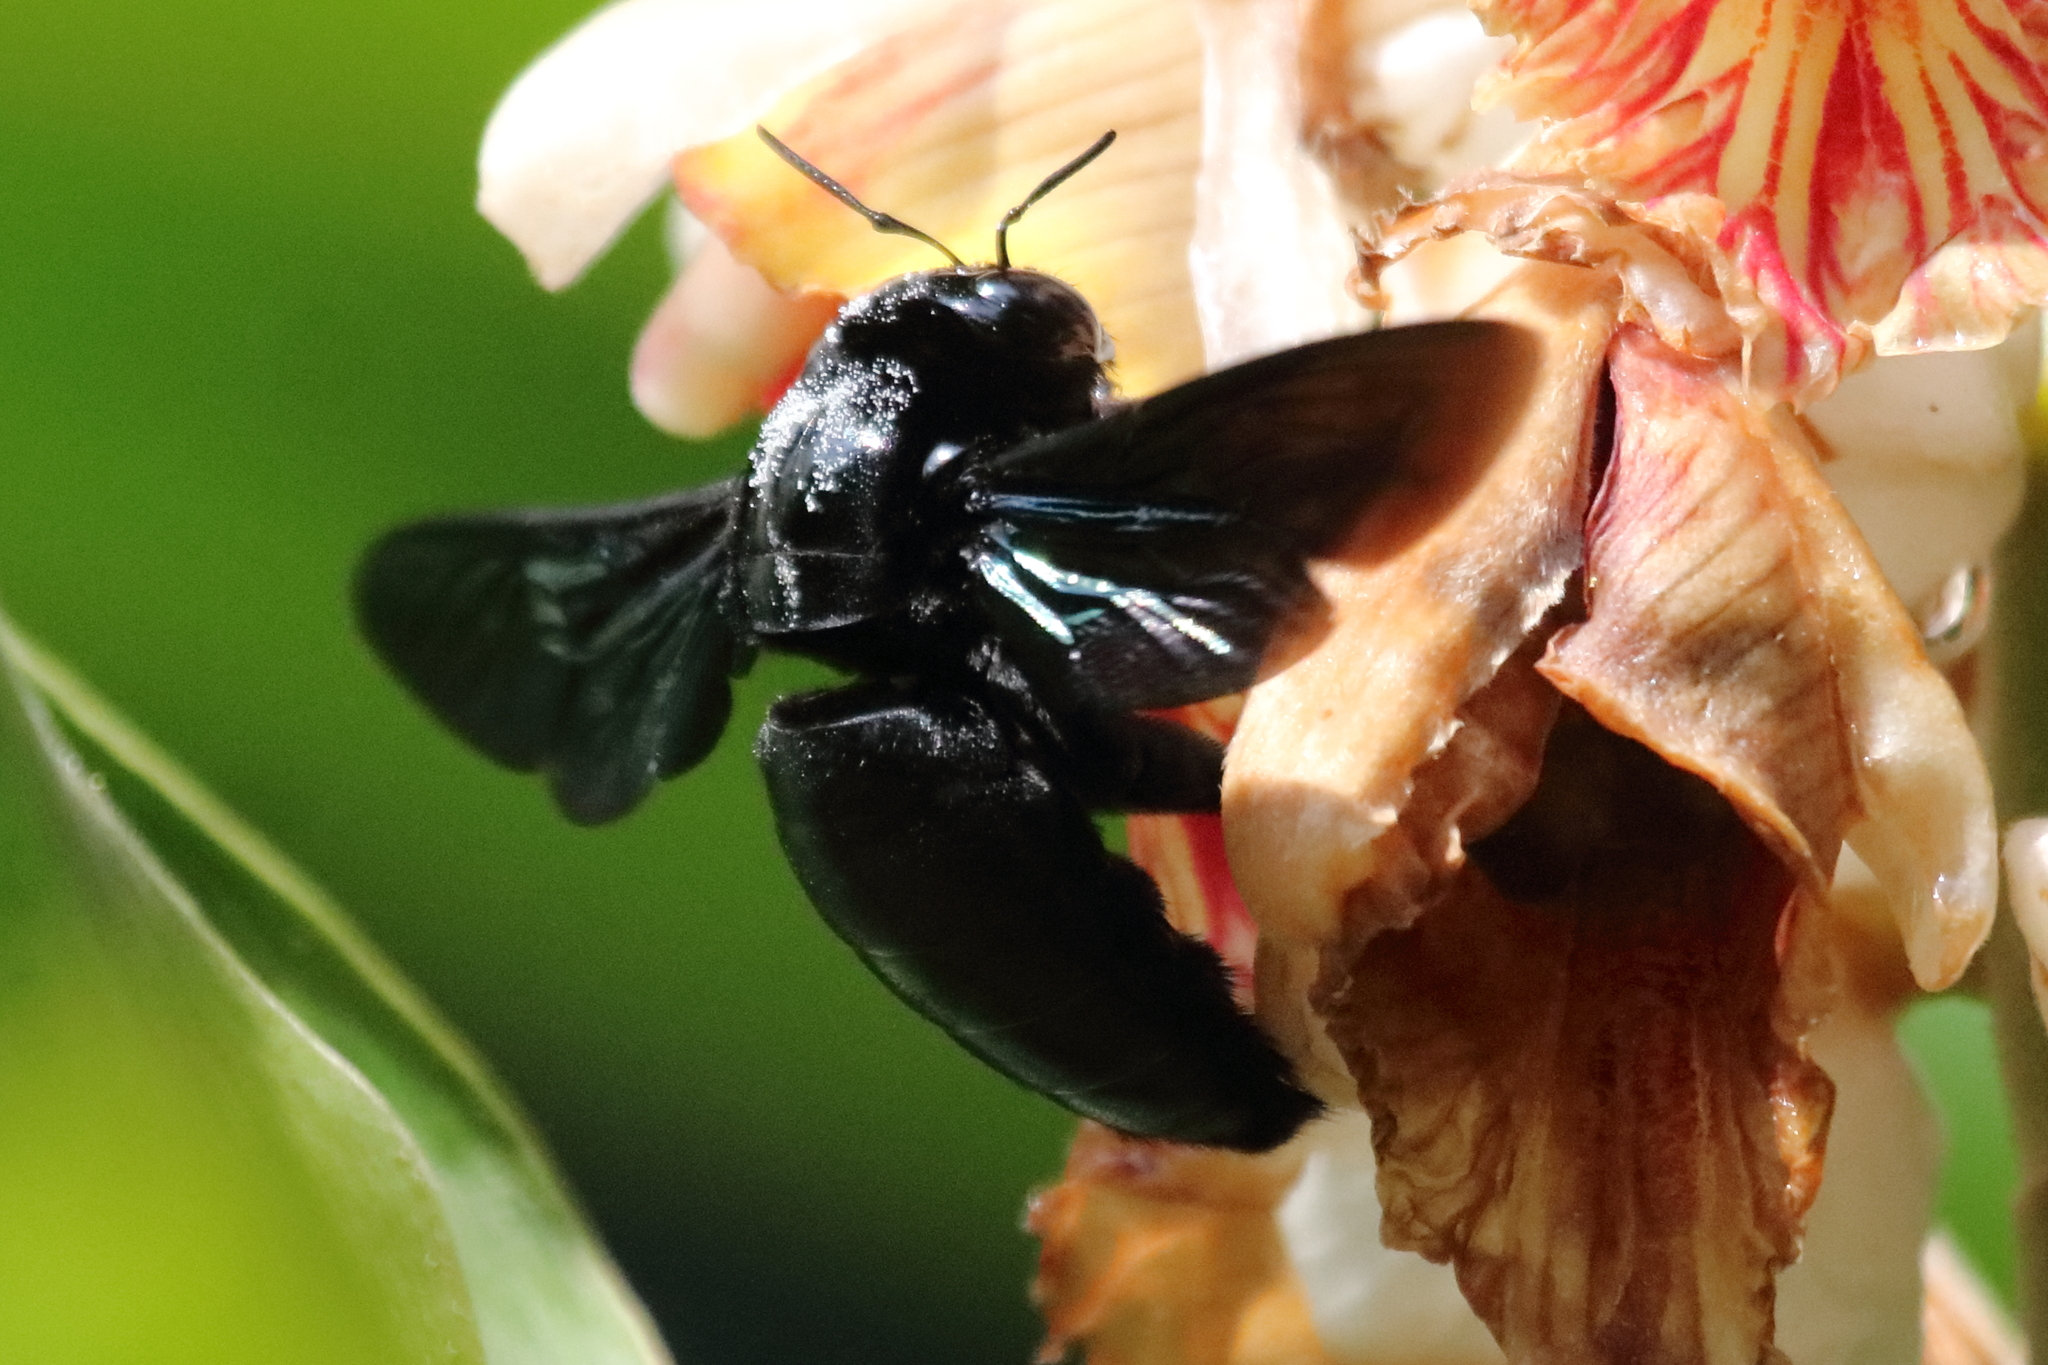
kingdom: Animalia
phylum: Arthropoda
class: Insecta
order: Hymenoptera
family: Apidae
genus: Xylocopa
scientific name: Xylocopa latipes
